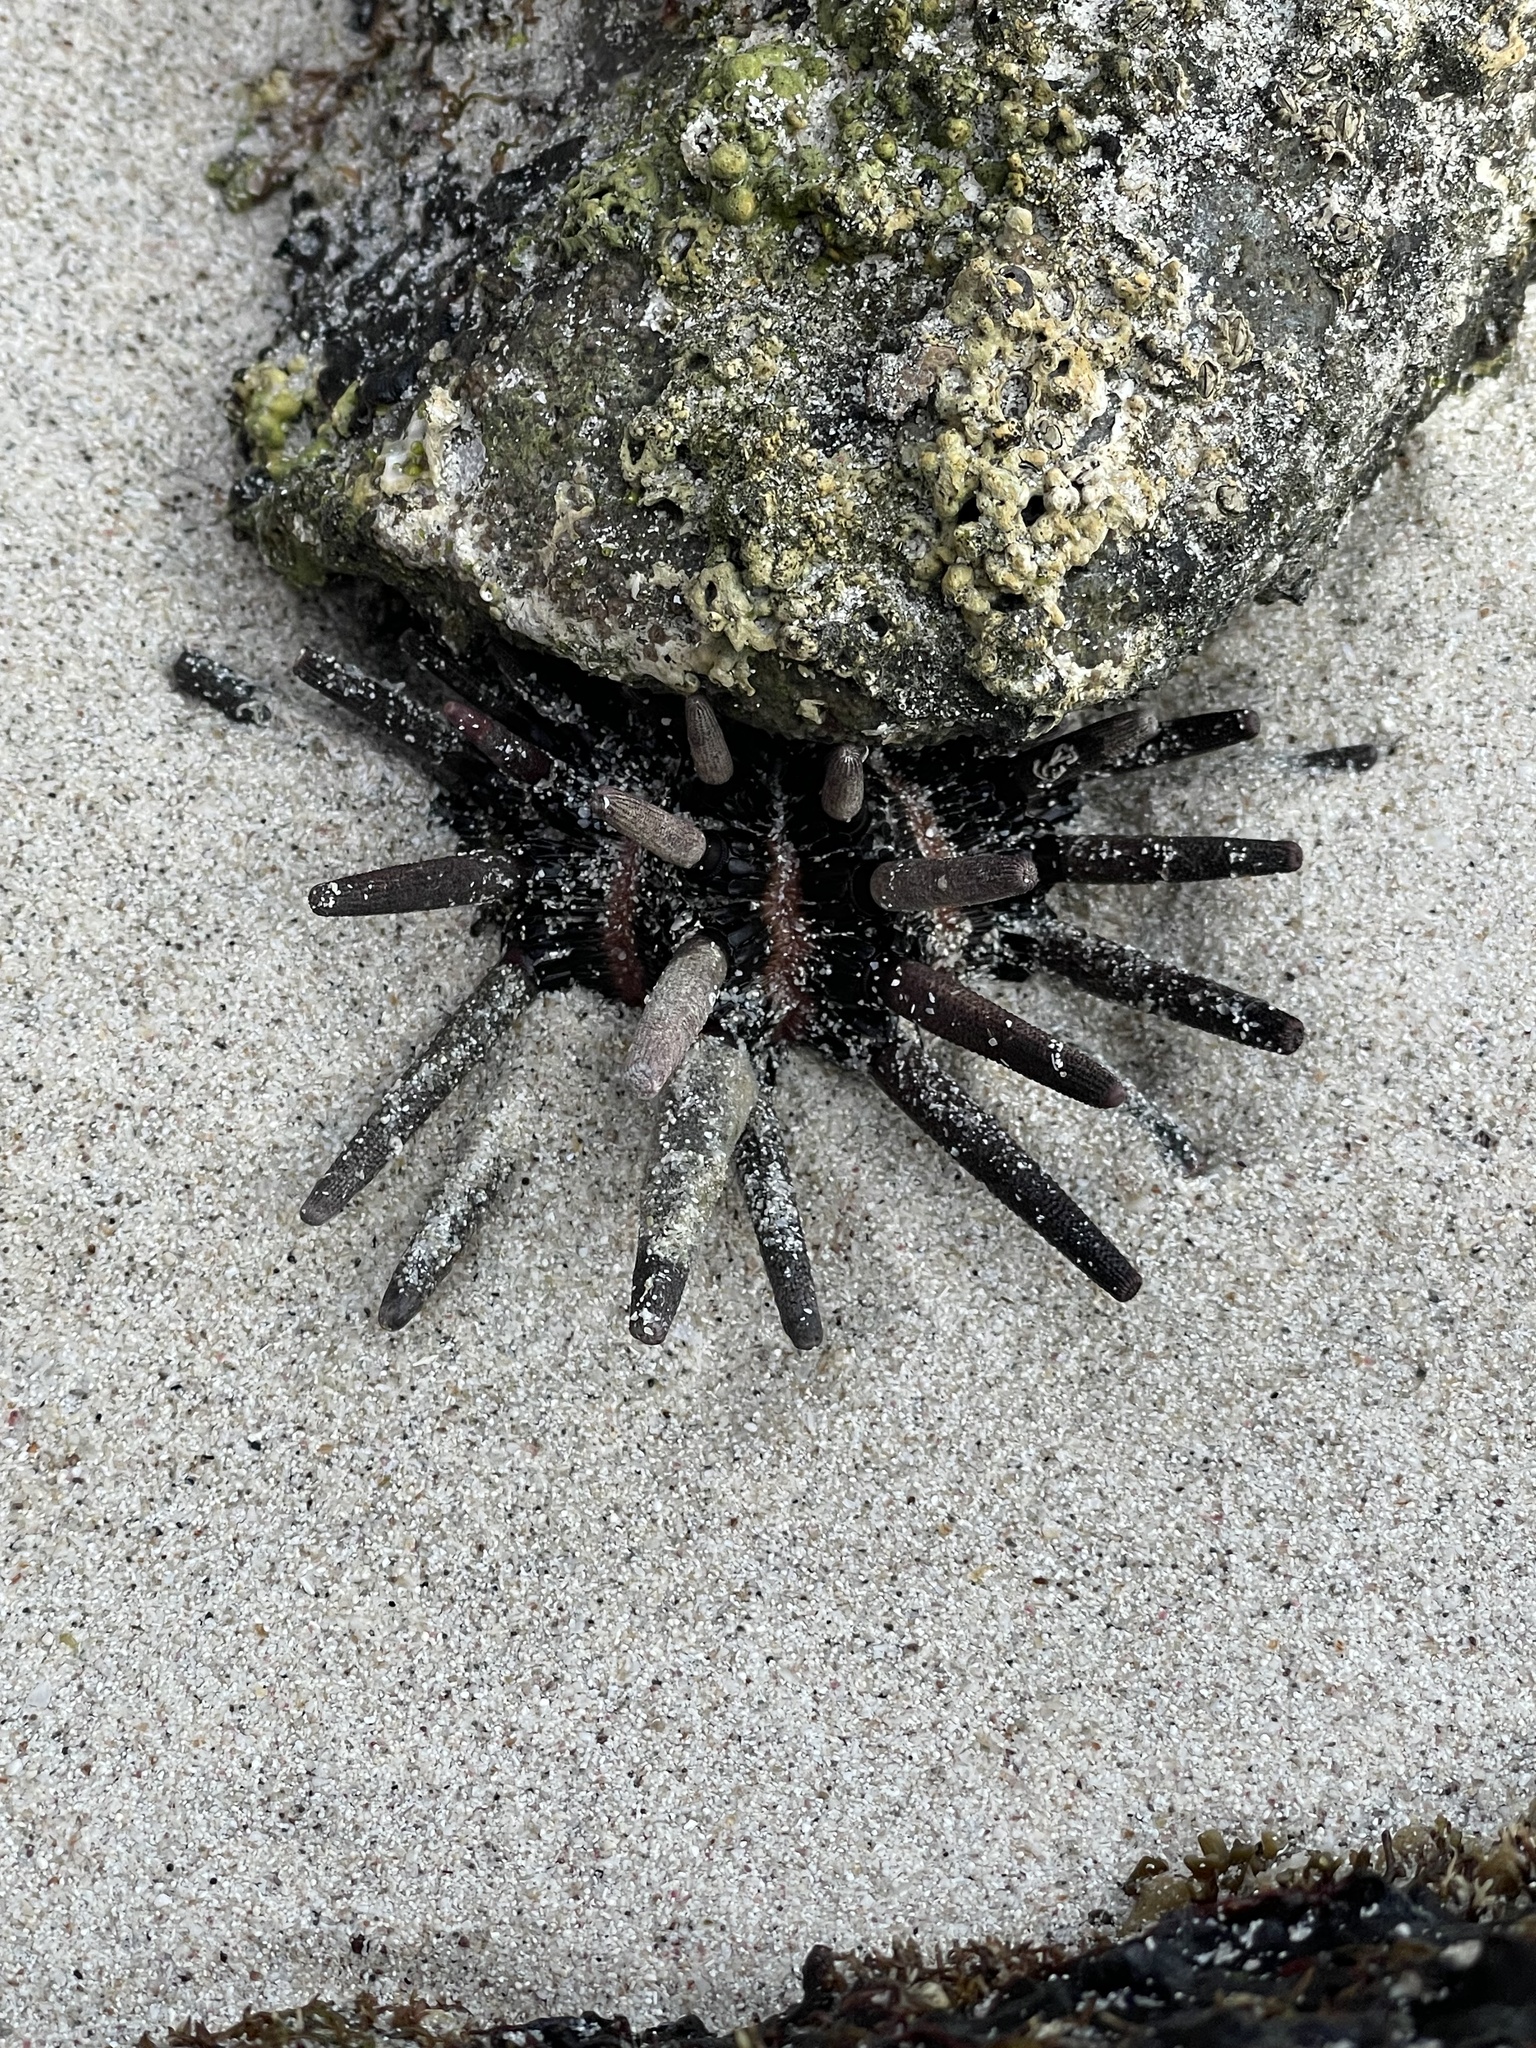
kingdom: Animalia
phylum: Echinodermata
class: Echinoidea
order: Cidaroida
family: Cidaridae
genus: Eucidaris
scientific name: Eucidaris thouarsii
